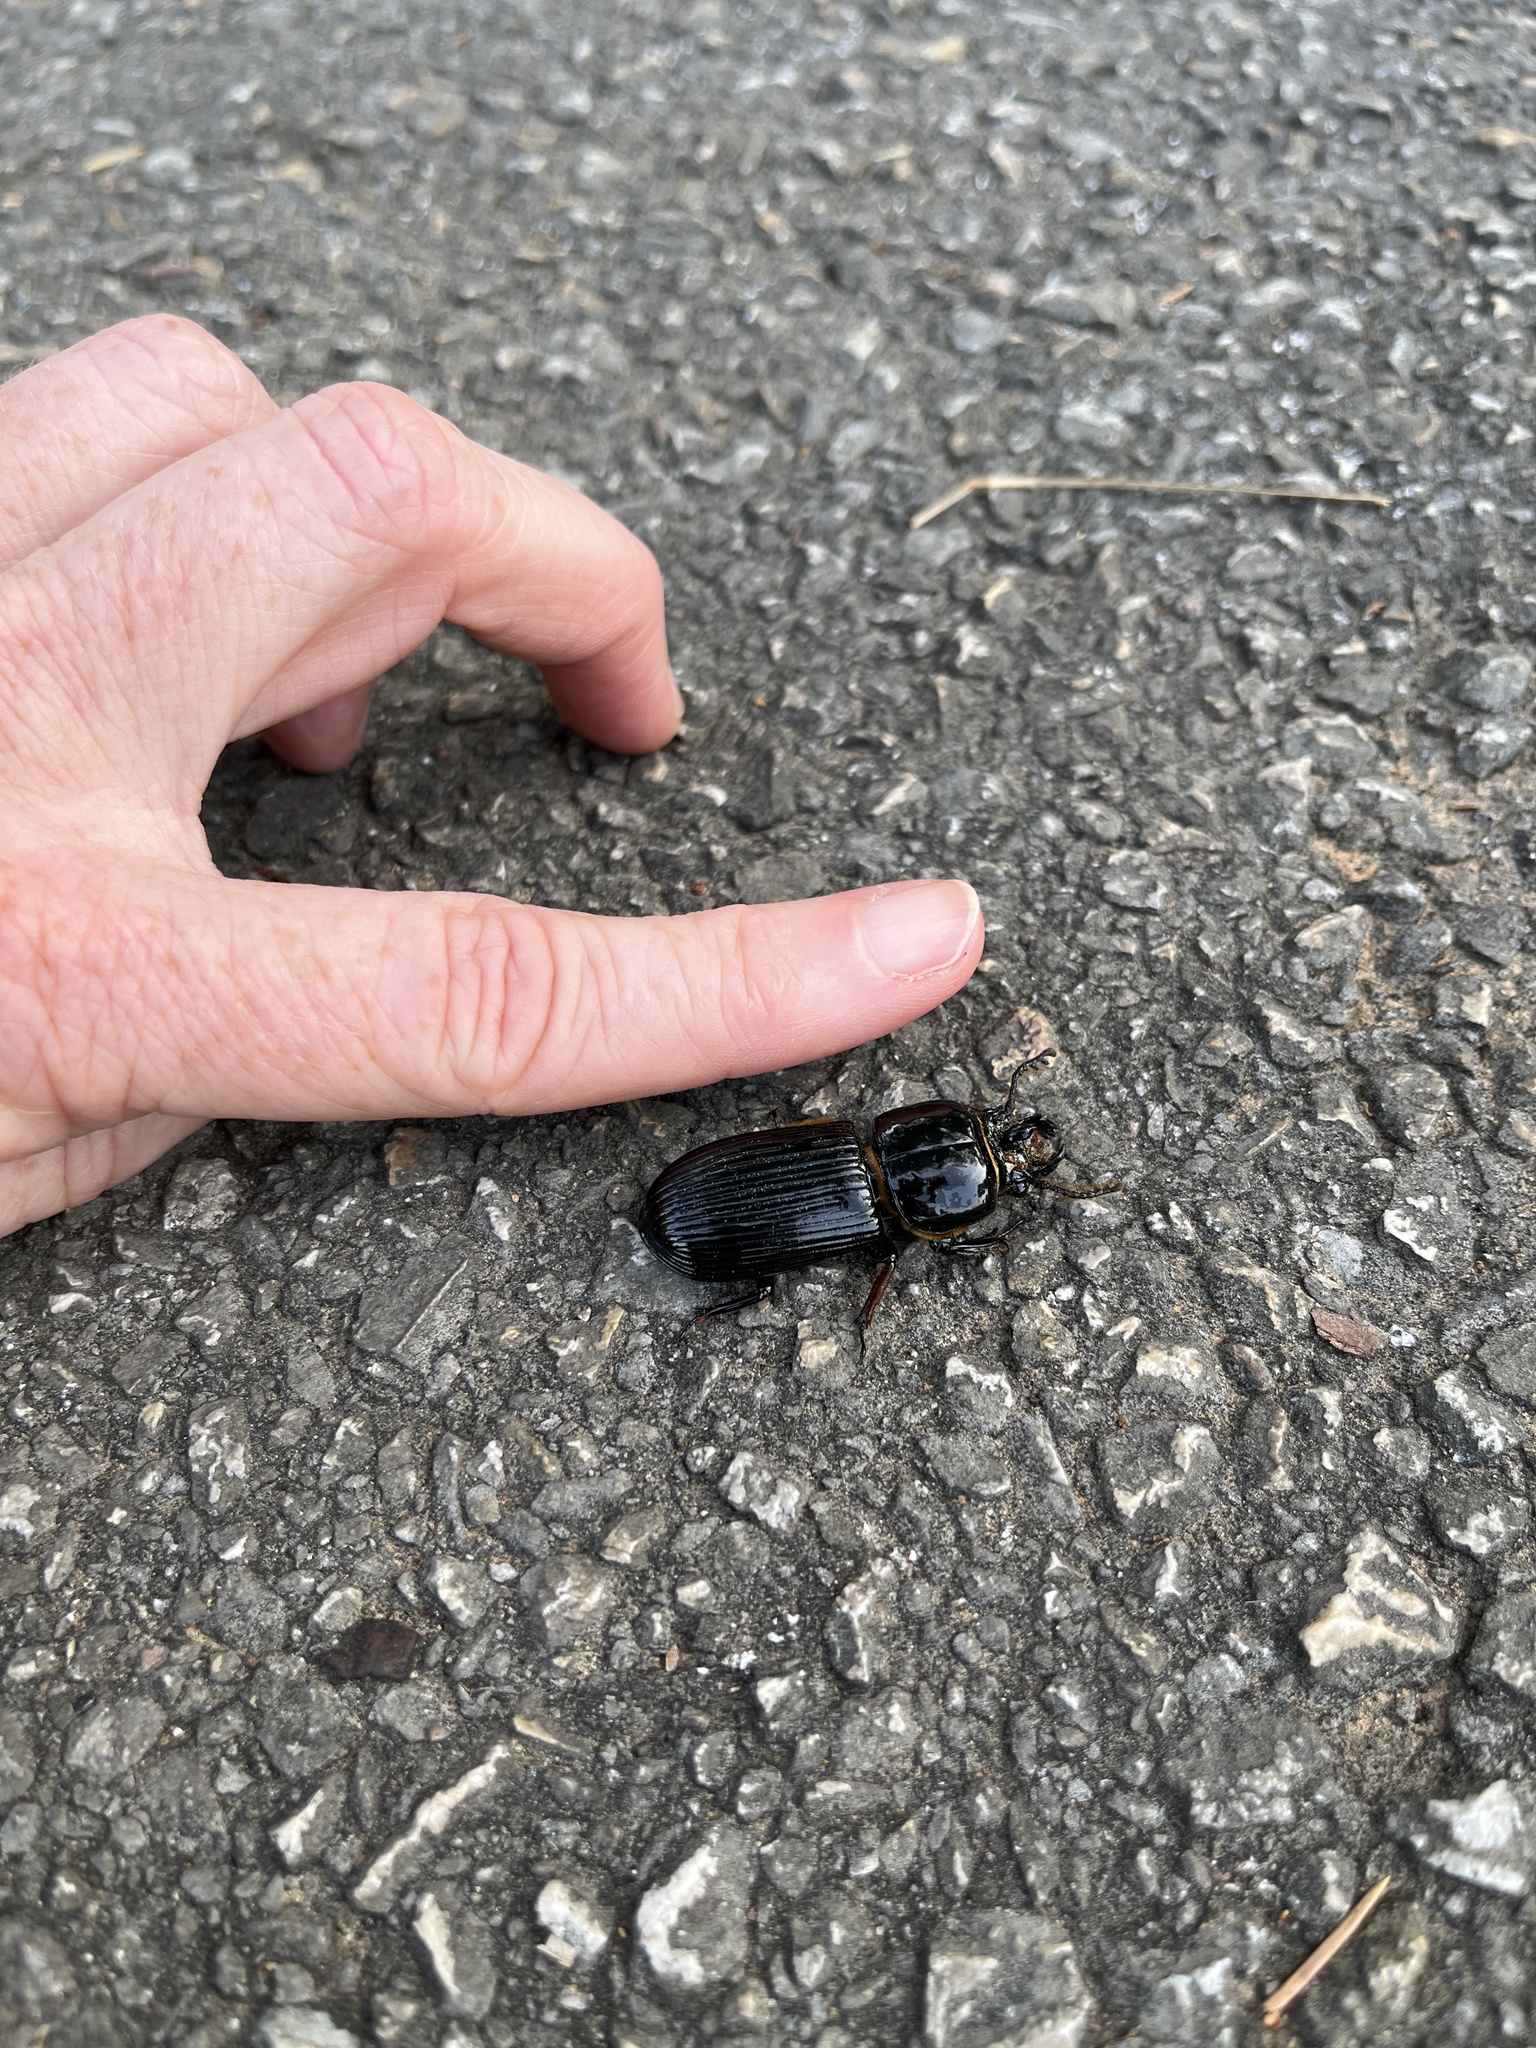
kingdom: Animalia
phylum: Arthropoda
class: Insecta
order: Coleoptera
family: Passalidae
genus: Odontotaenius
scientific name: Odontotaenius disjunctus
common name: Patent leather beetle
